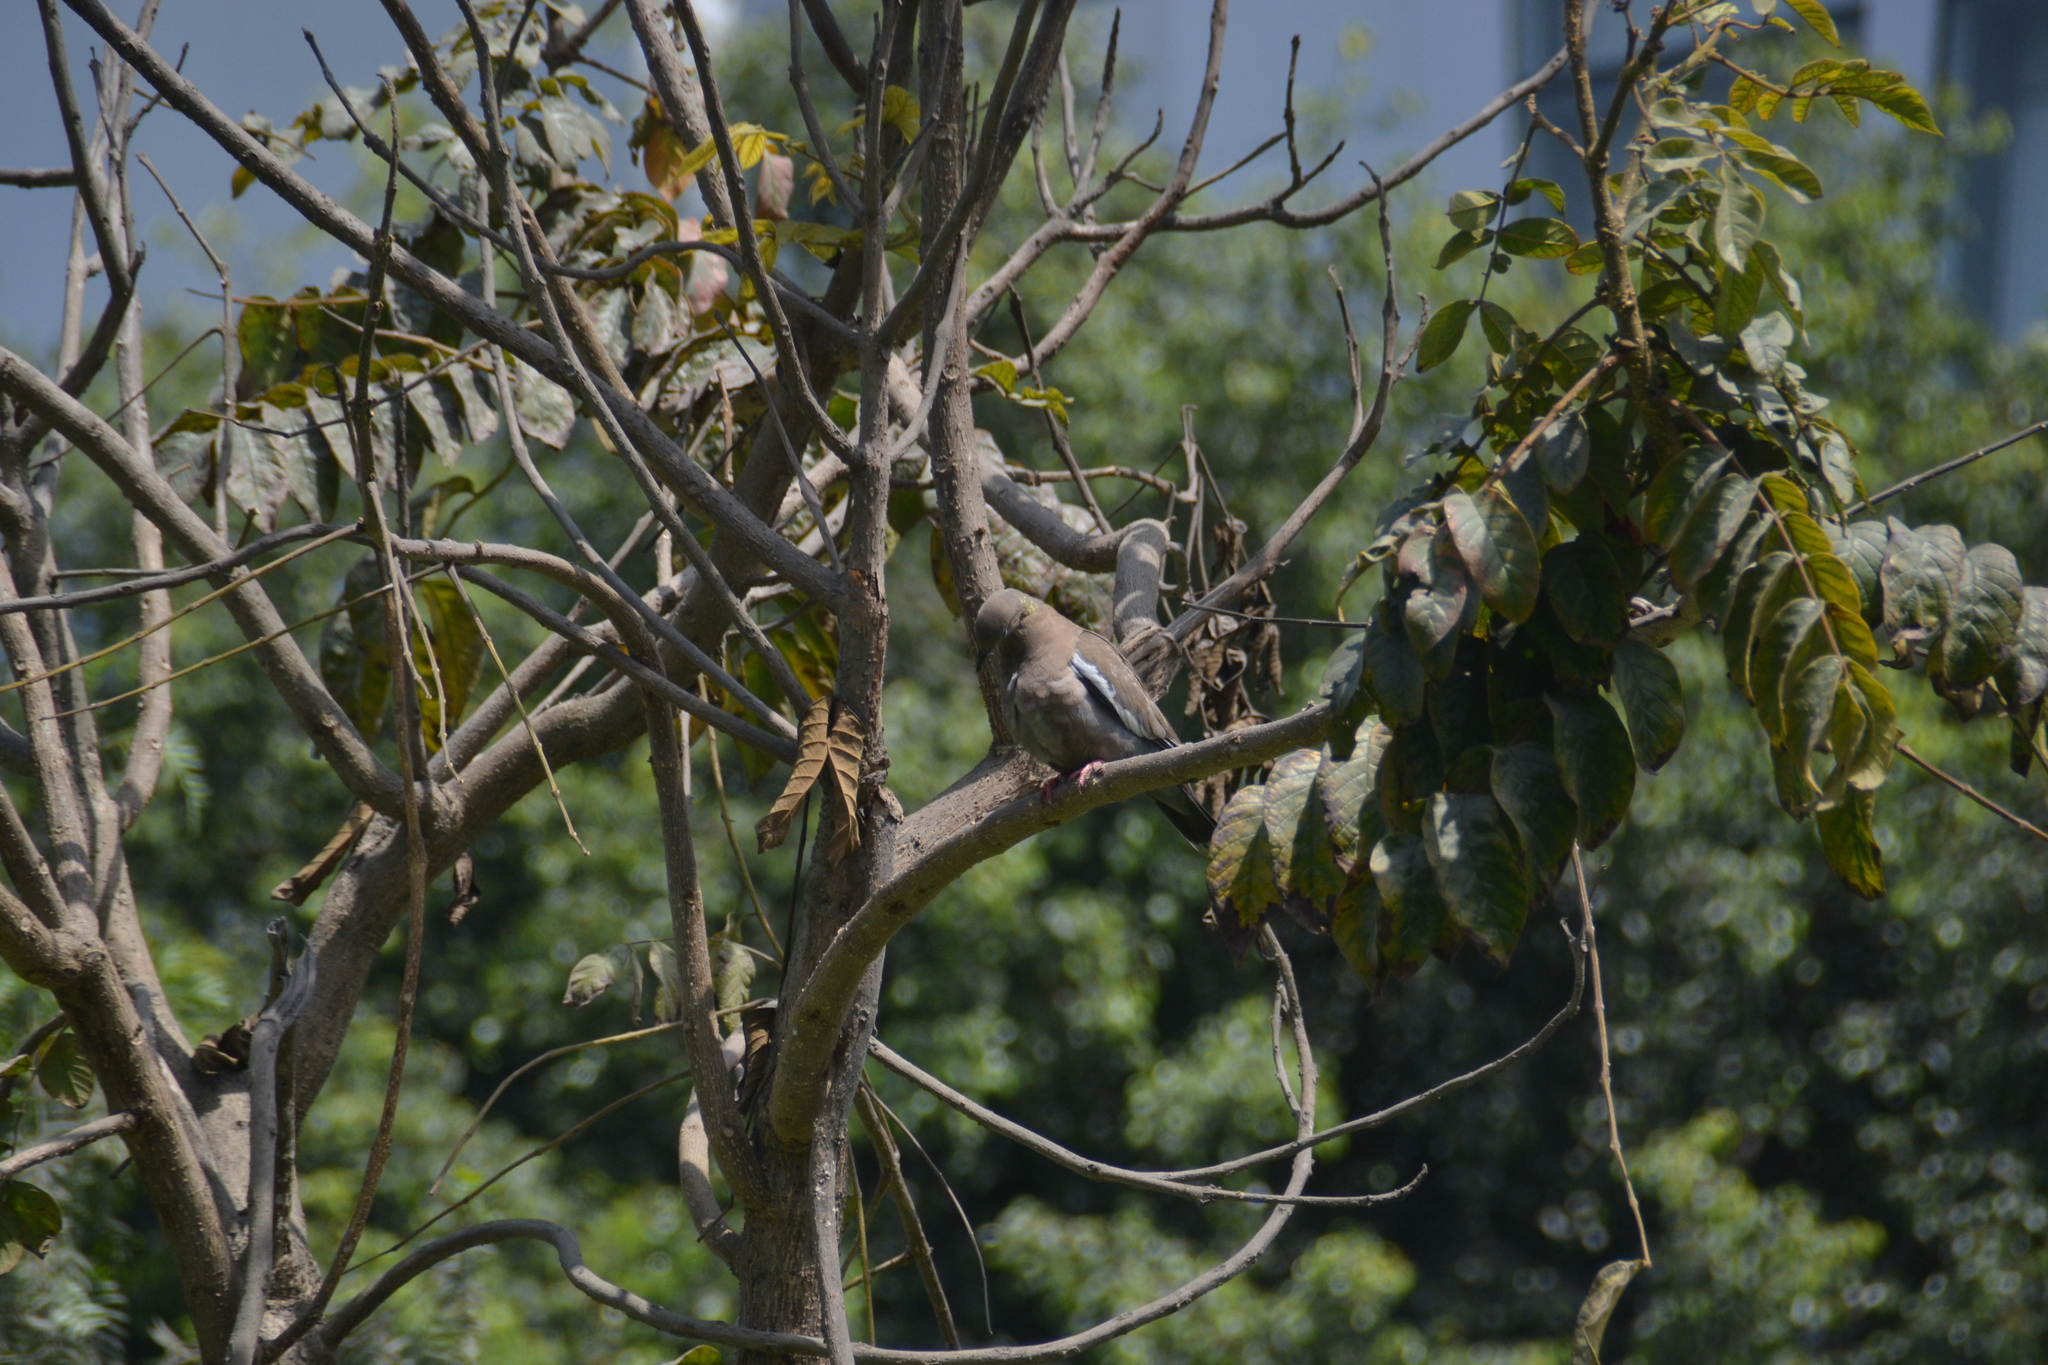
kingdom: Animalia
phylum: Chordata
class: Aves
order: Columbiformes
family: Columbidae
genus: Zenaida
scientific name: Zenaida meloda
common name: West peruvian dove
